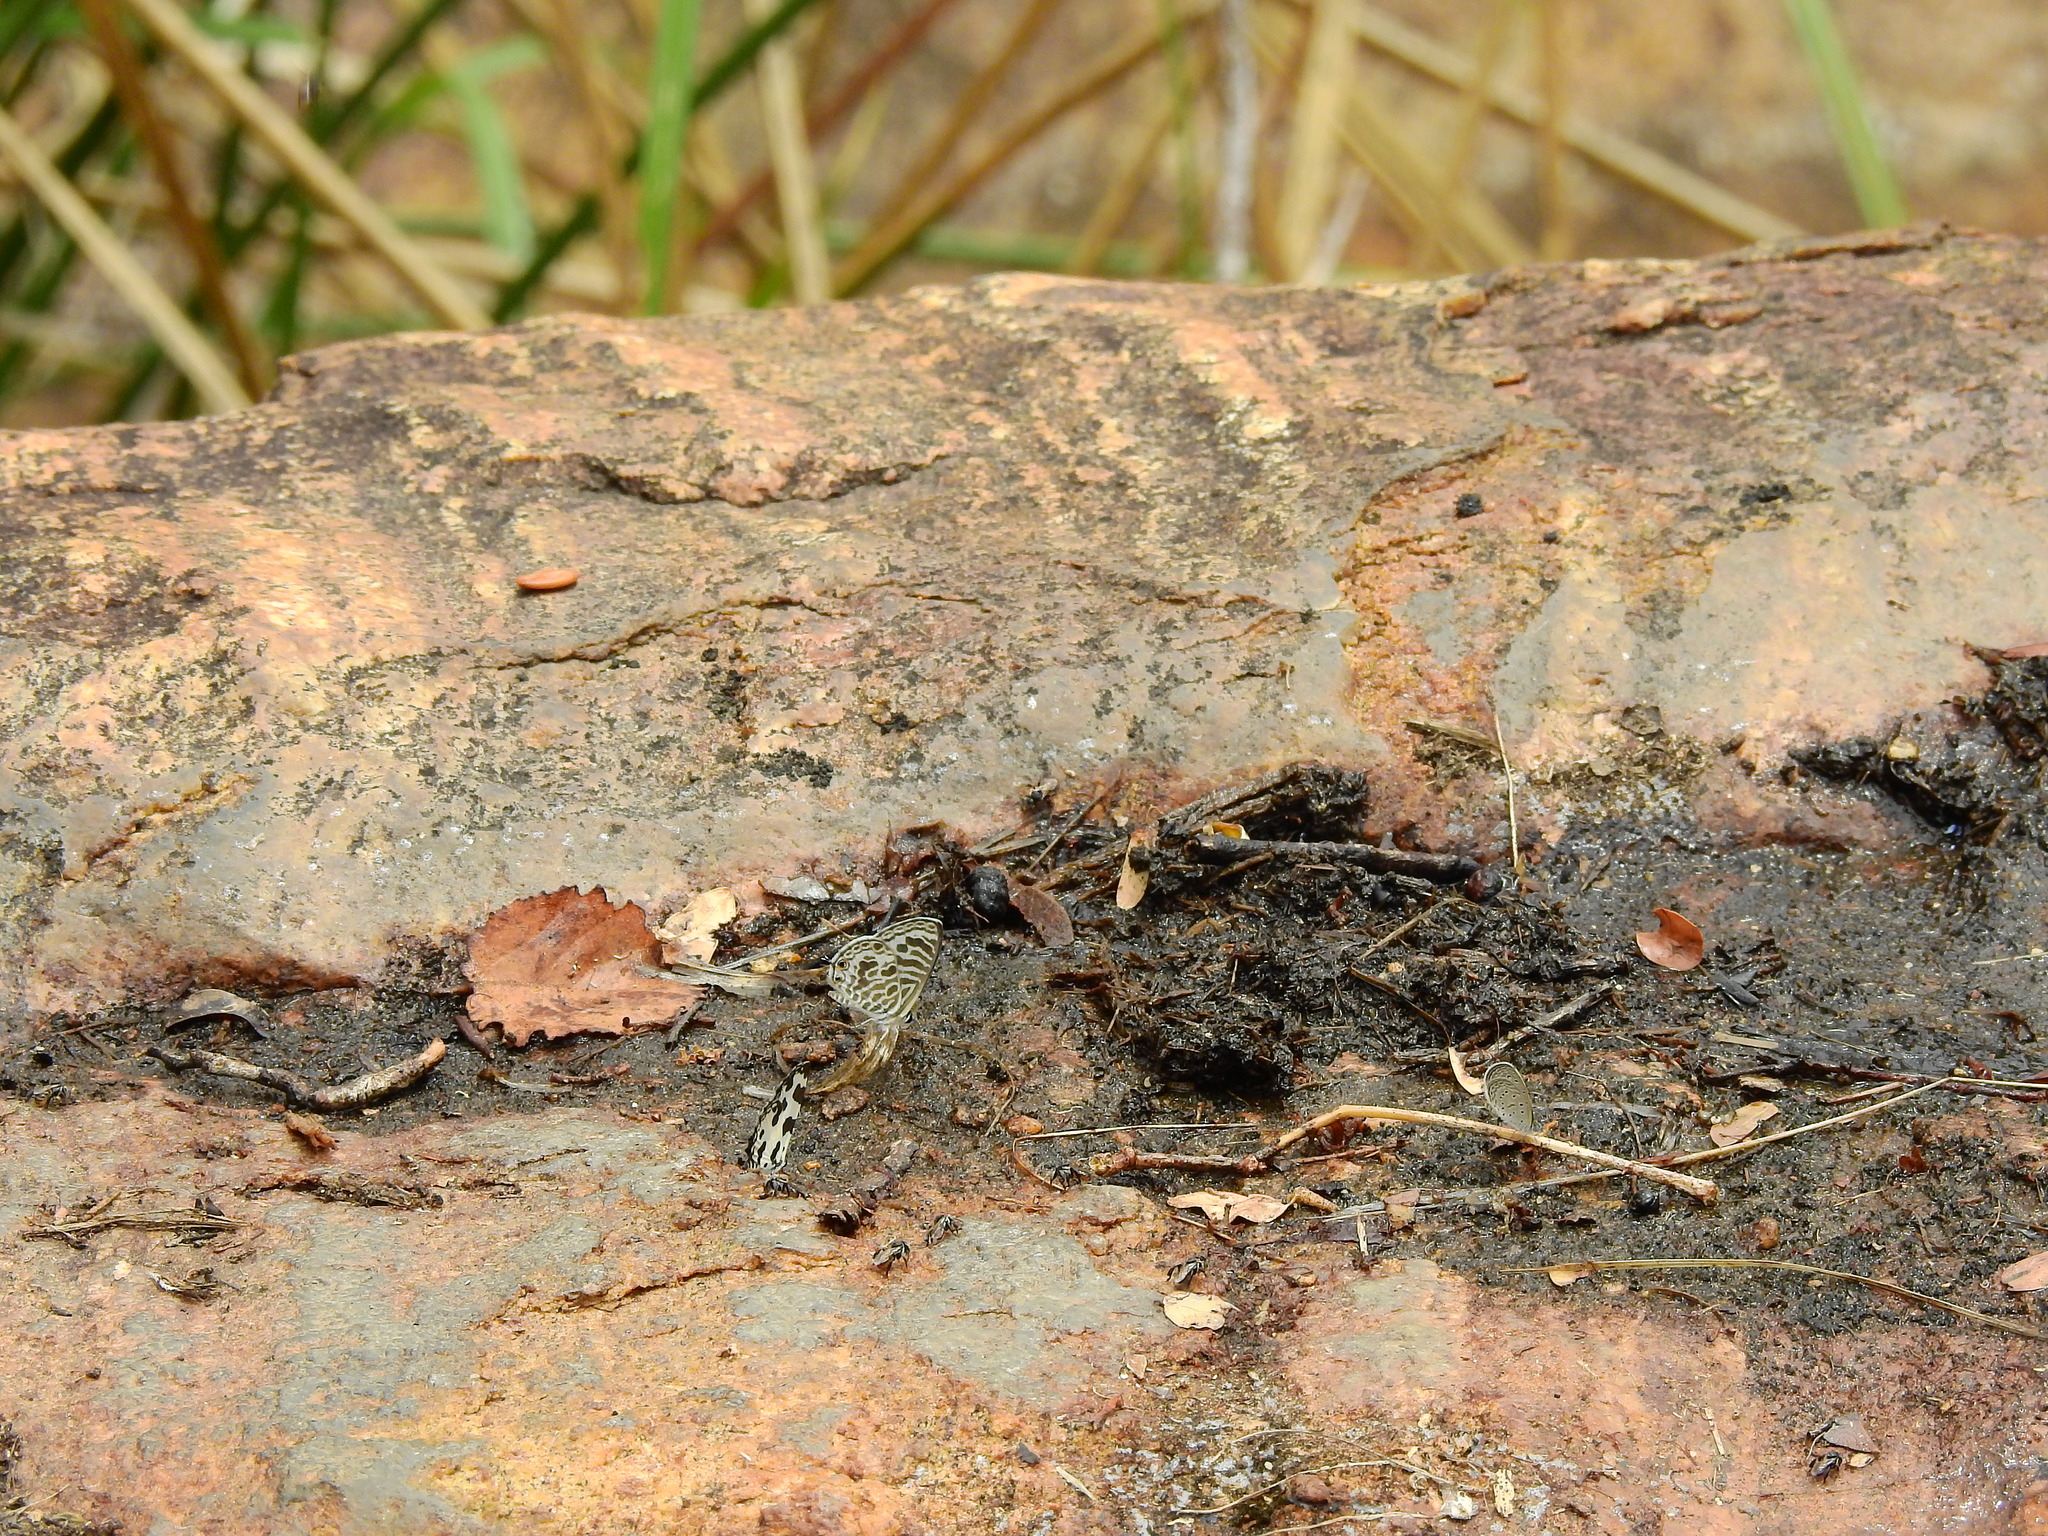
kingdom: Animalia
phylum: Arthropoda
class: Insecta
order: Lepidoptera
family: Lycaenidae
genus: Leptotes
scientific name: Leptotes plinius
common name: Zebra blue
